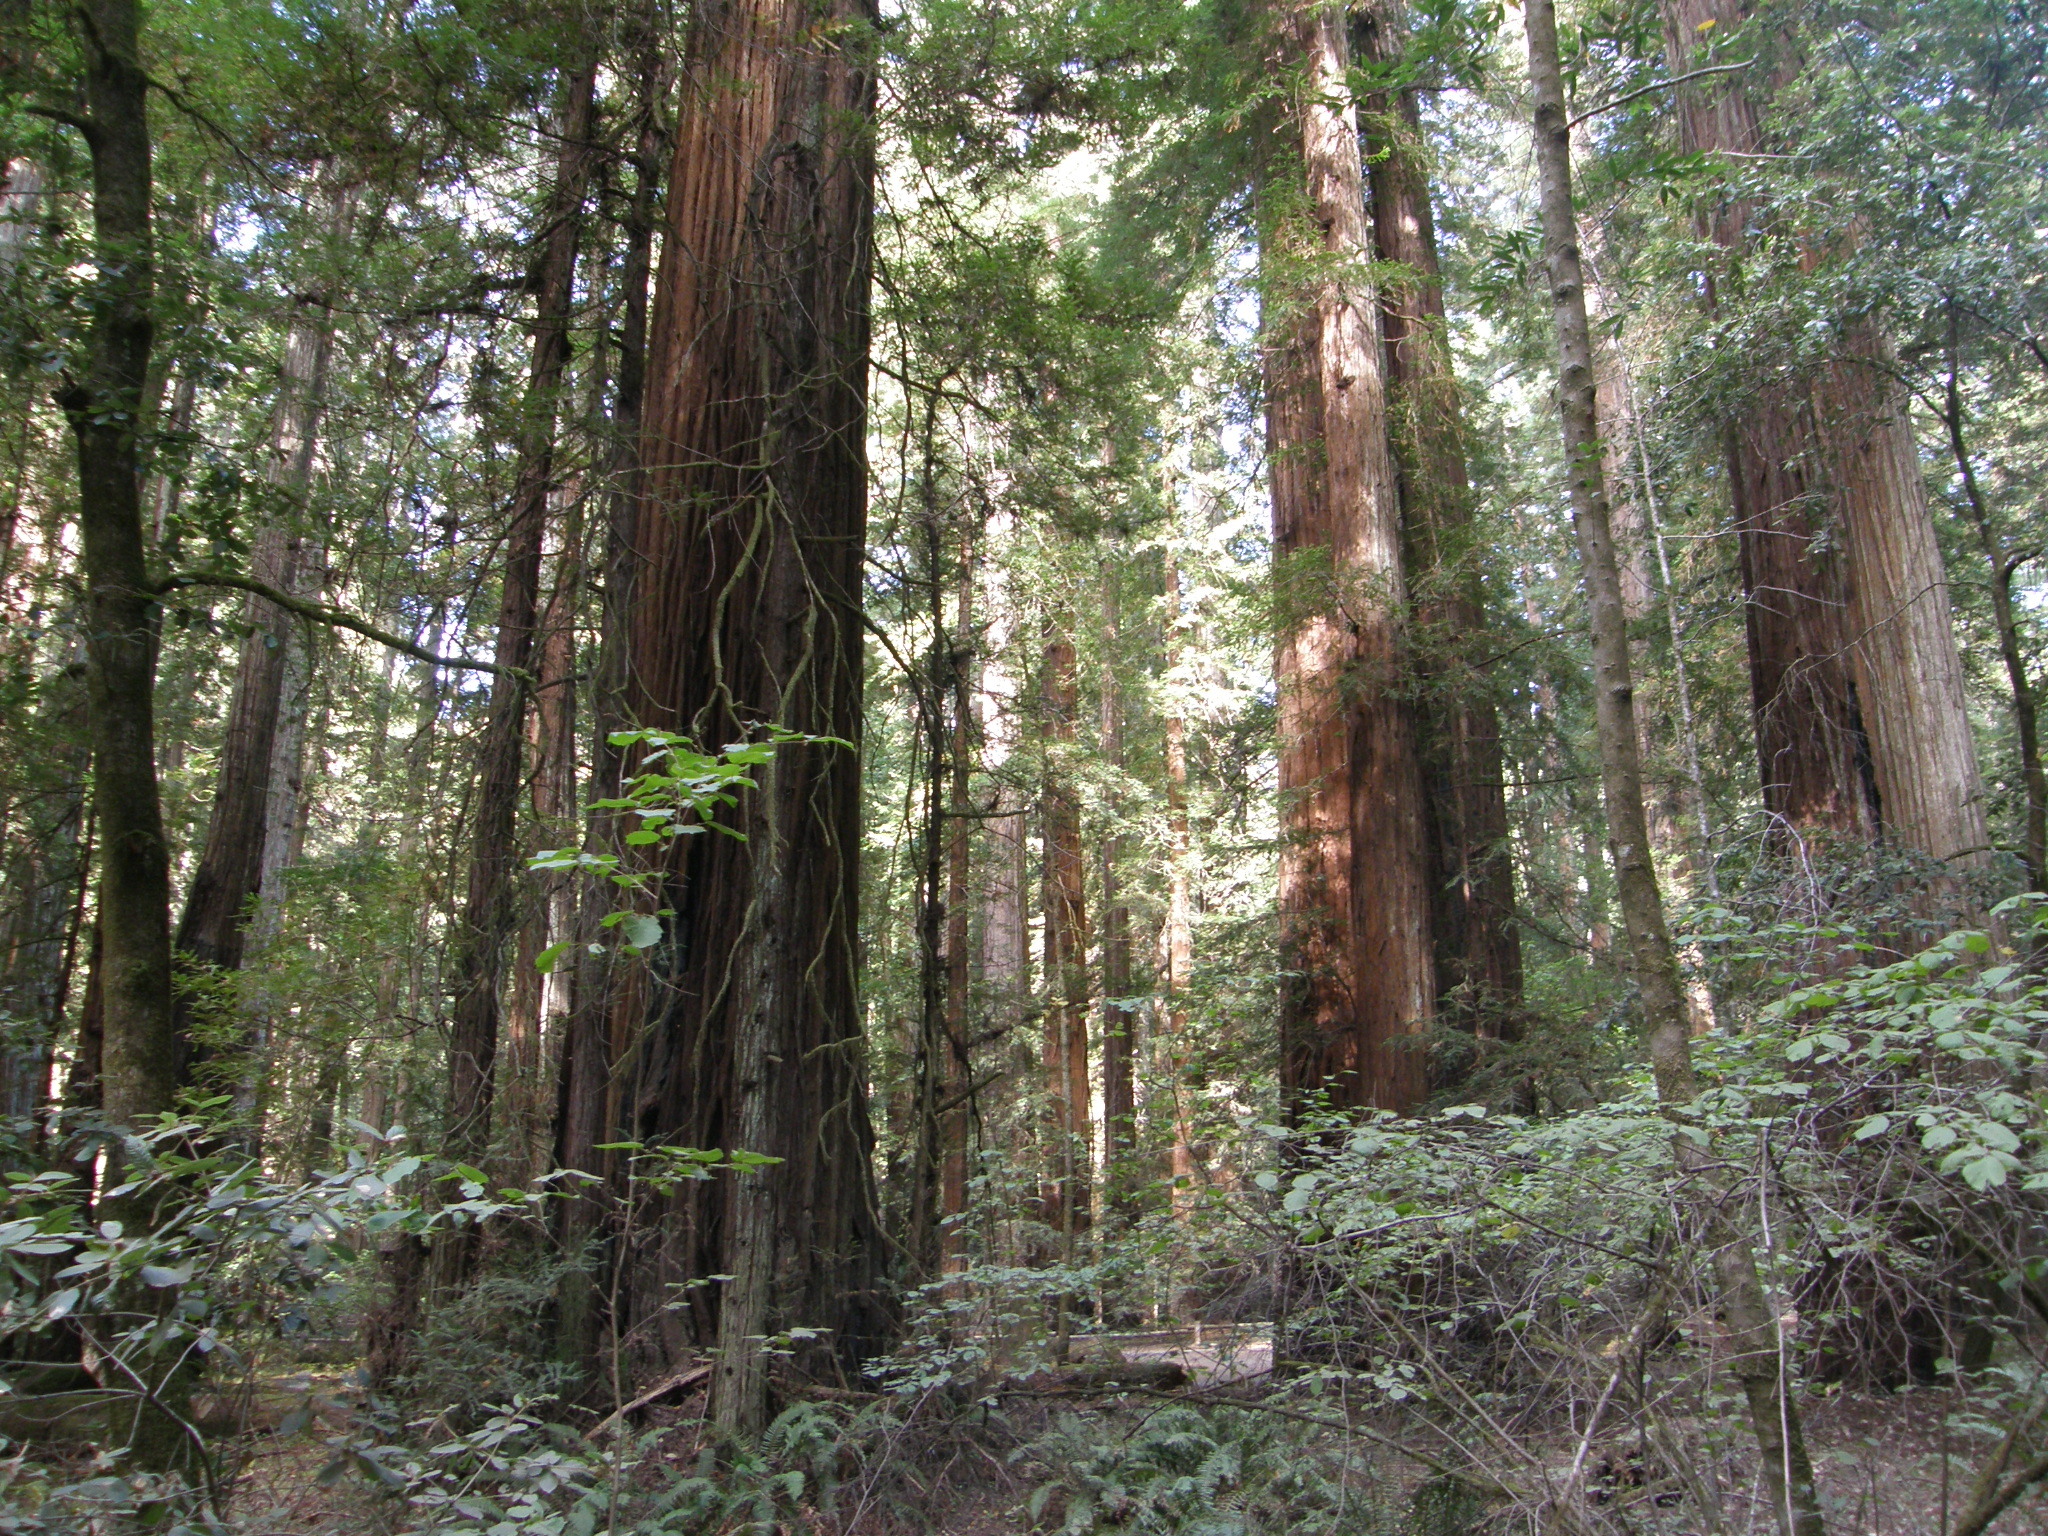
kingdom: Plantae
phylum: Tracheophyta
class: Pinopsida
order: Pinales
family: Cupressaceae
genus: Sequoia
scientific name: Sequoia sempervirens
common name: Coast redwood
